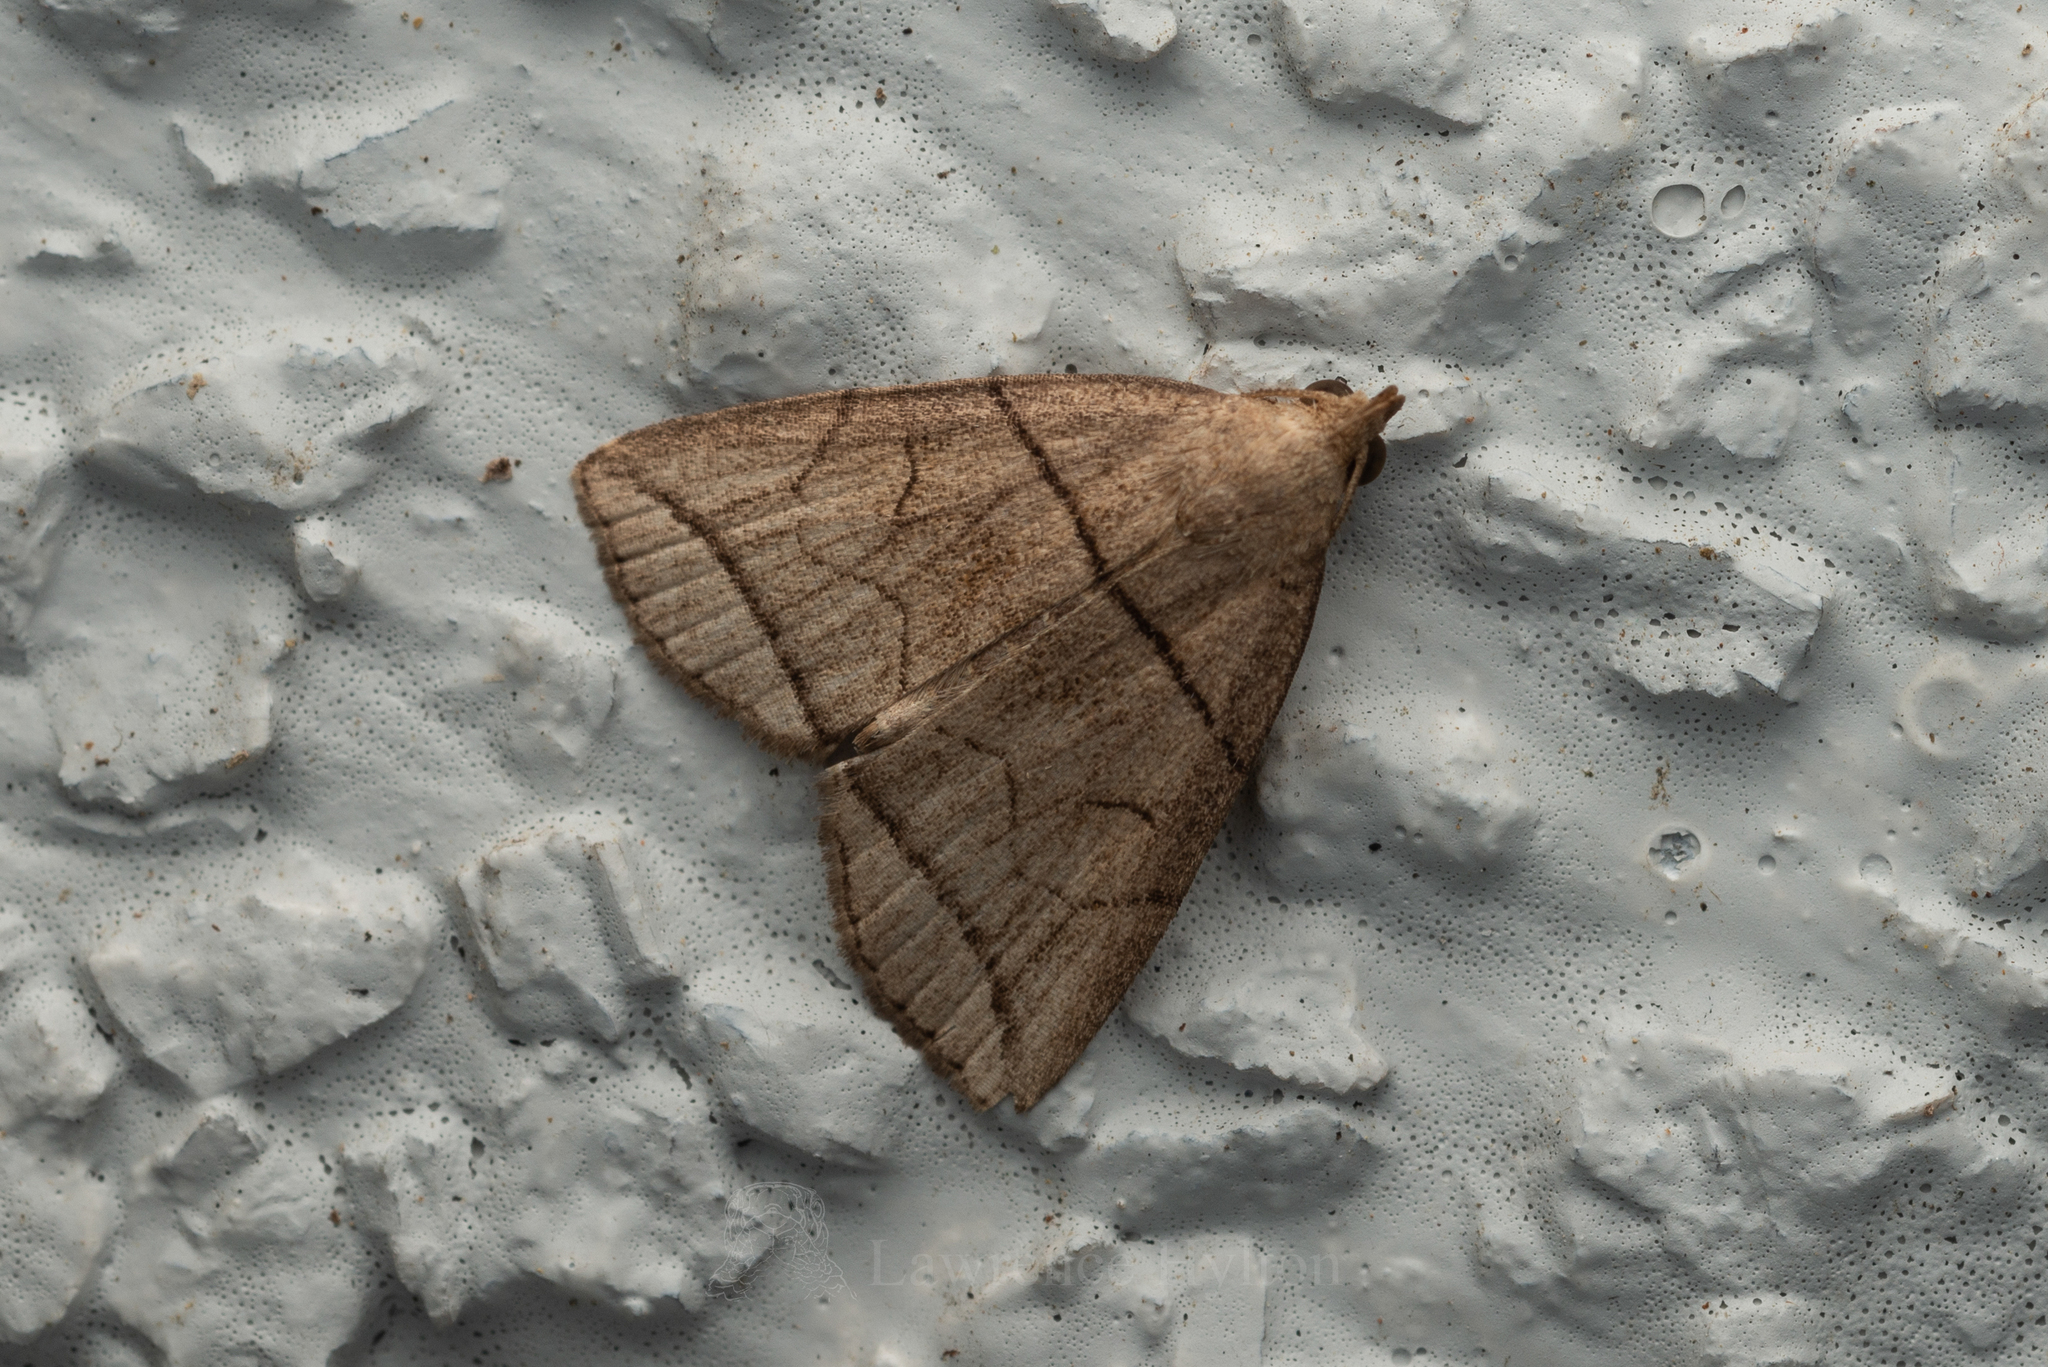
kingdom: Animalia
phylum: Arthropoda
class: Insecta
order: Lepidoptera
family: Erebidae
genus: Herminia
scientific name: Herminia grisealis
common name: Small fan-foot
